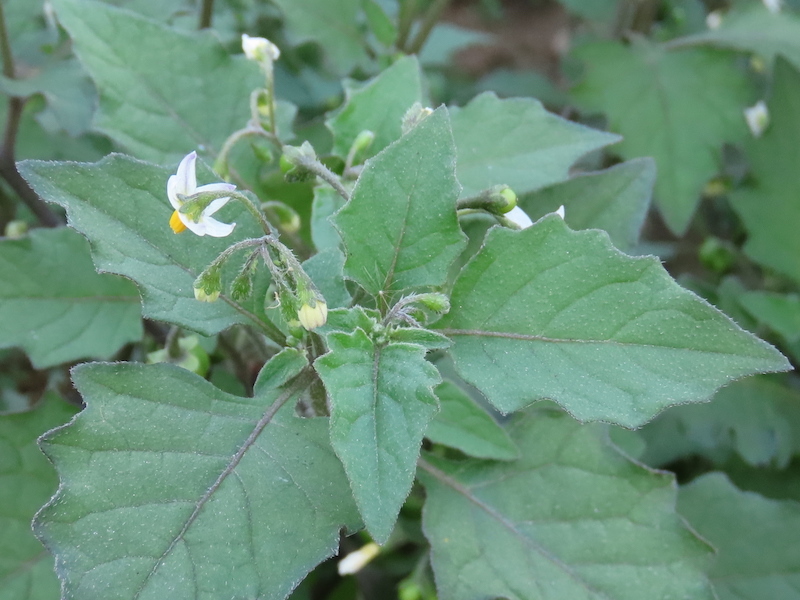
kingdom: Plantae
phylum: Tracheophyta
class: Magnoliopsida
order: Solanales
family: Solanaceae
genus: Solanum
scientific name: Solanum nigrum
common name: Black nightshade
